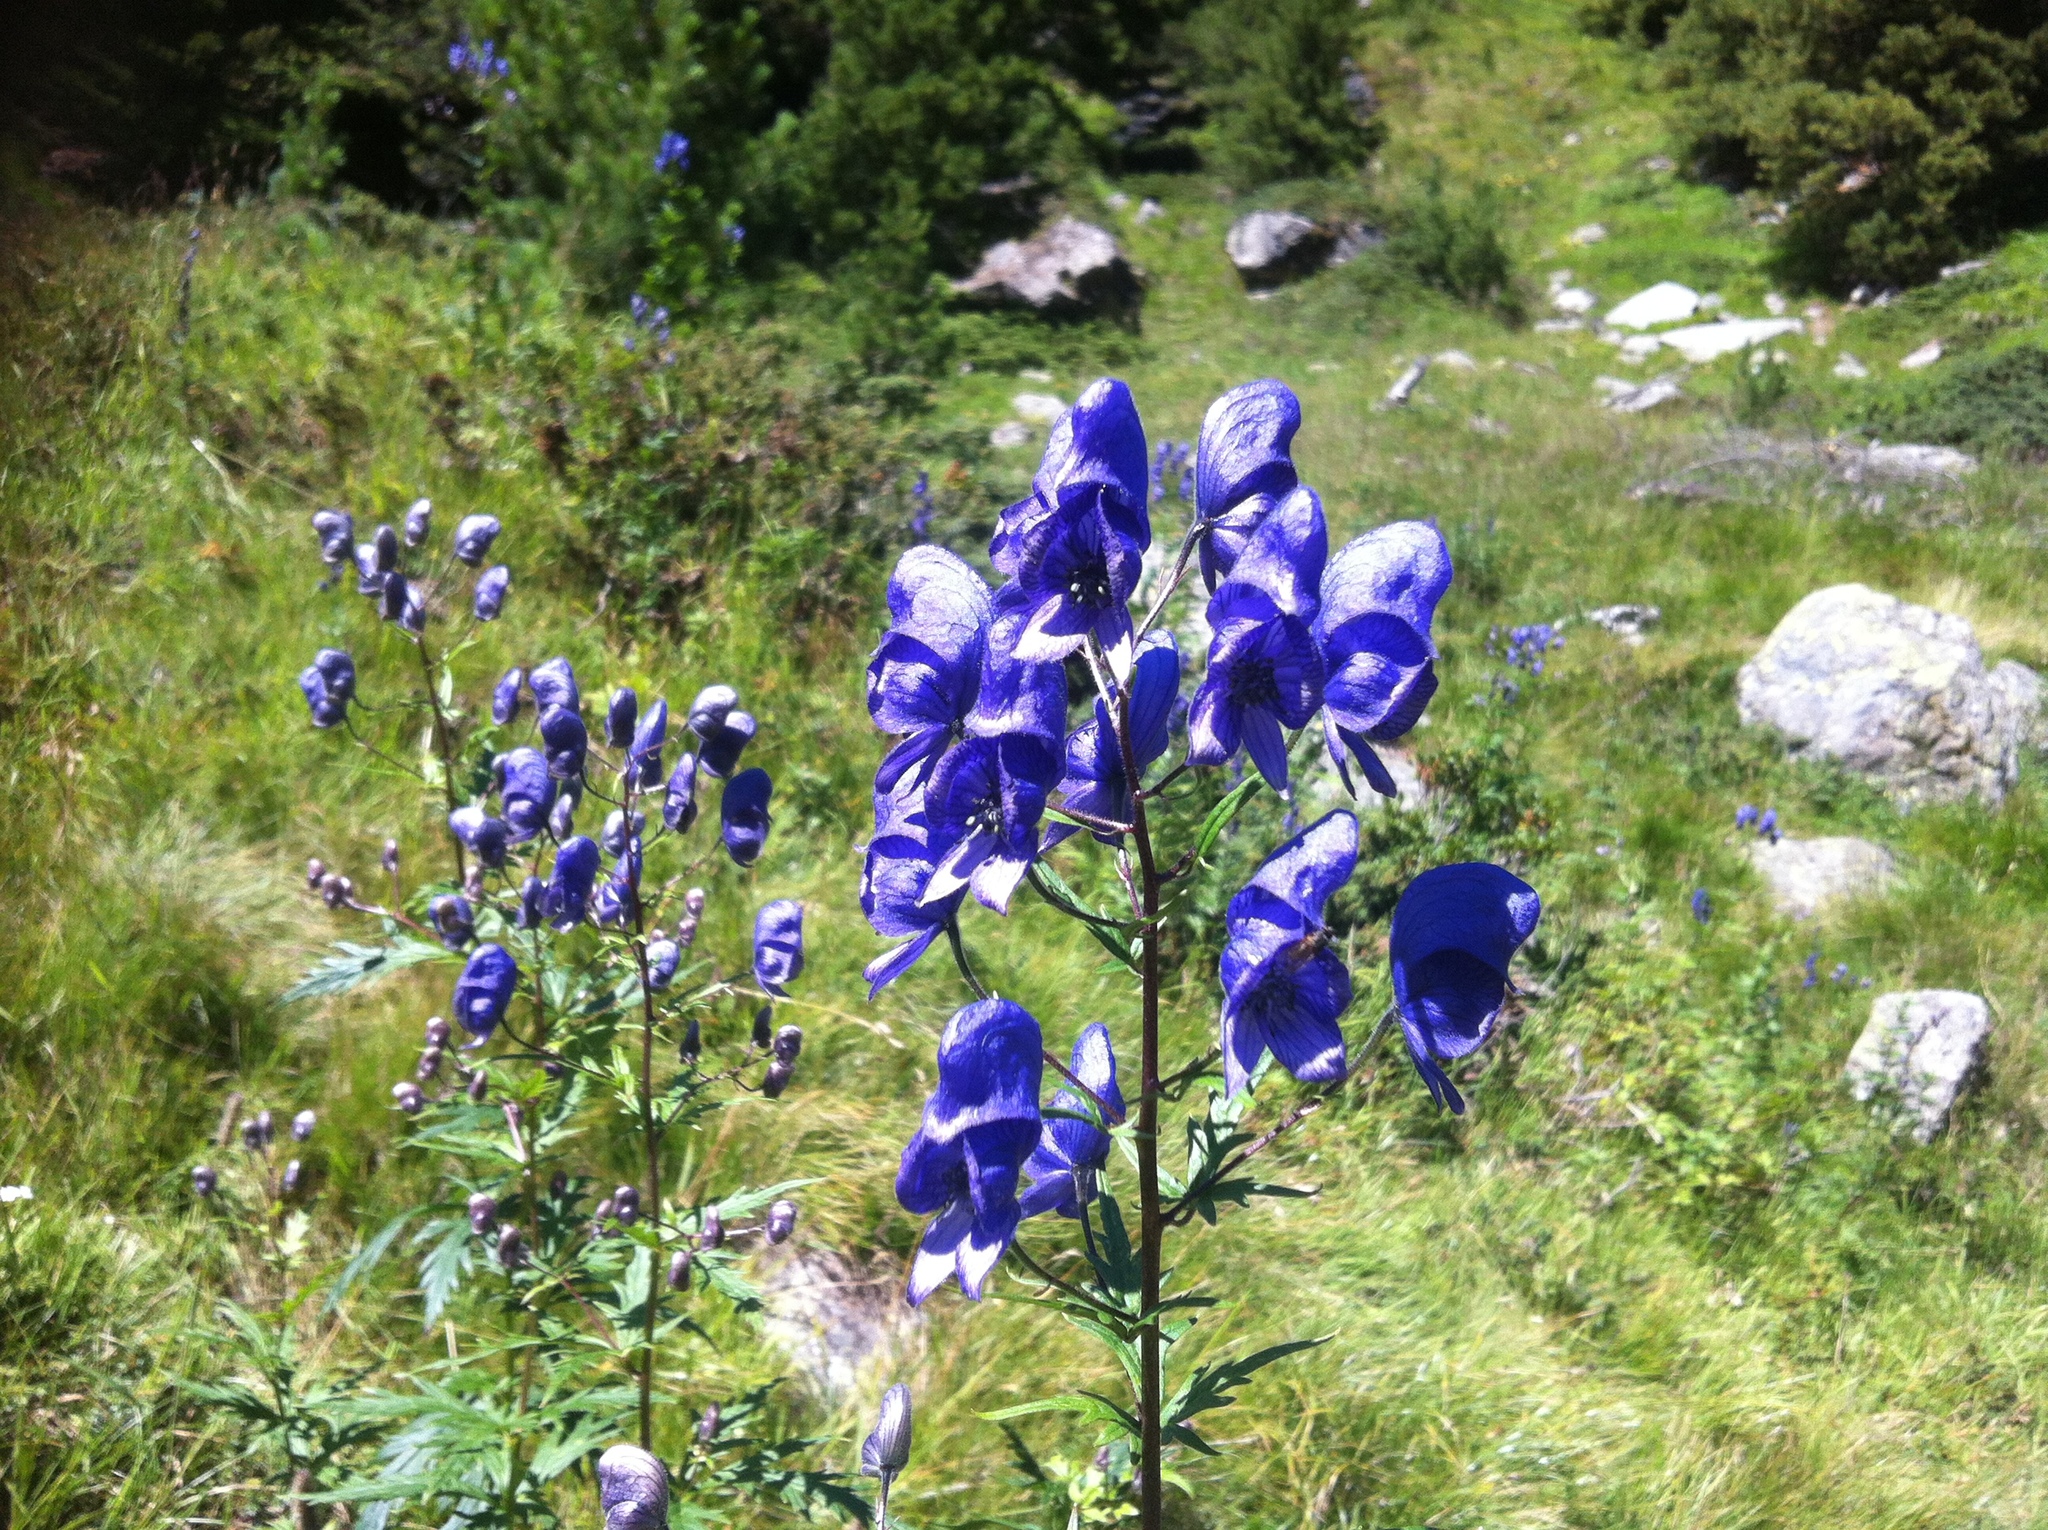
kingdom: Plantae
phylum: Tracheophyta
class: Magnoliopsida
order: Ranunculales
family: Ranunculaceae
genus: Aconitum
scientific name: Aconitum degenii
